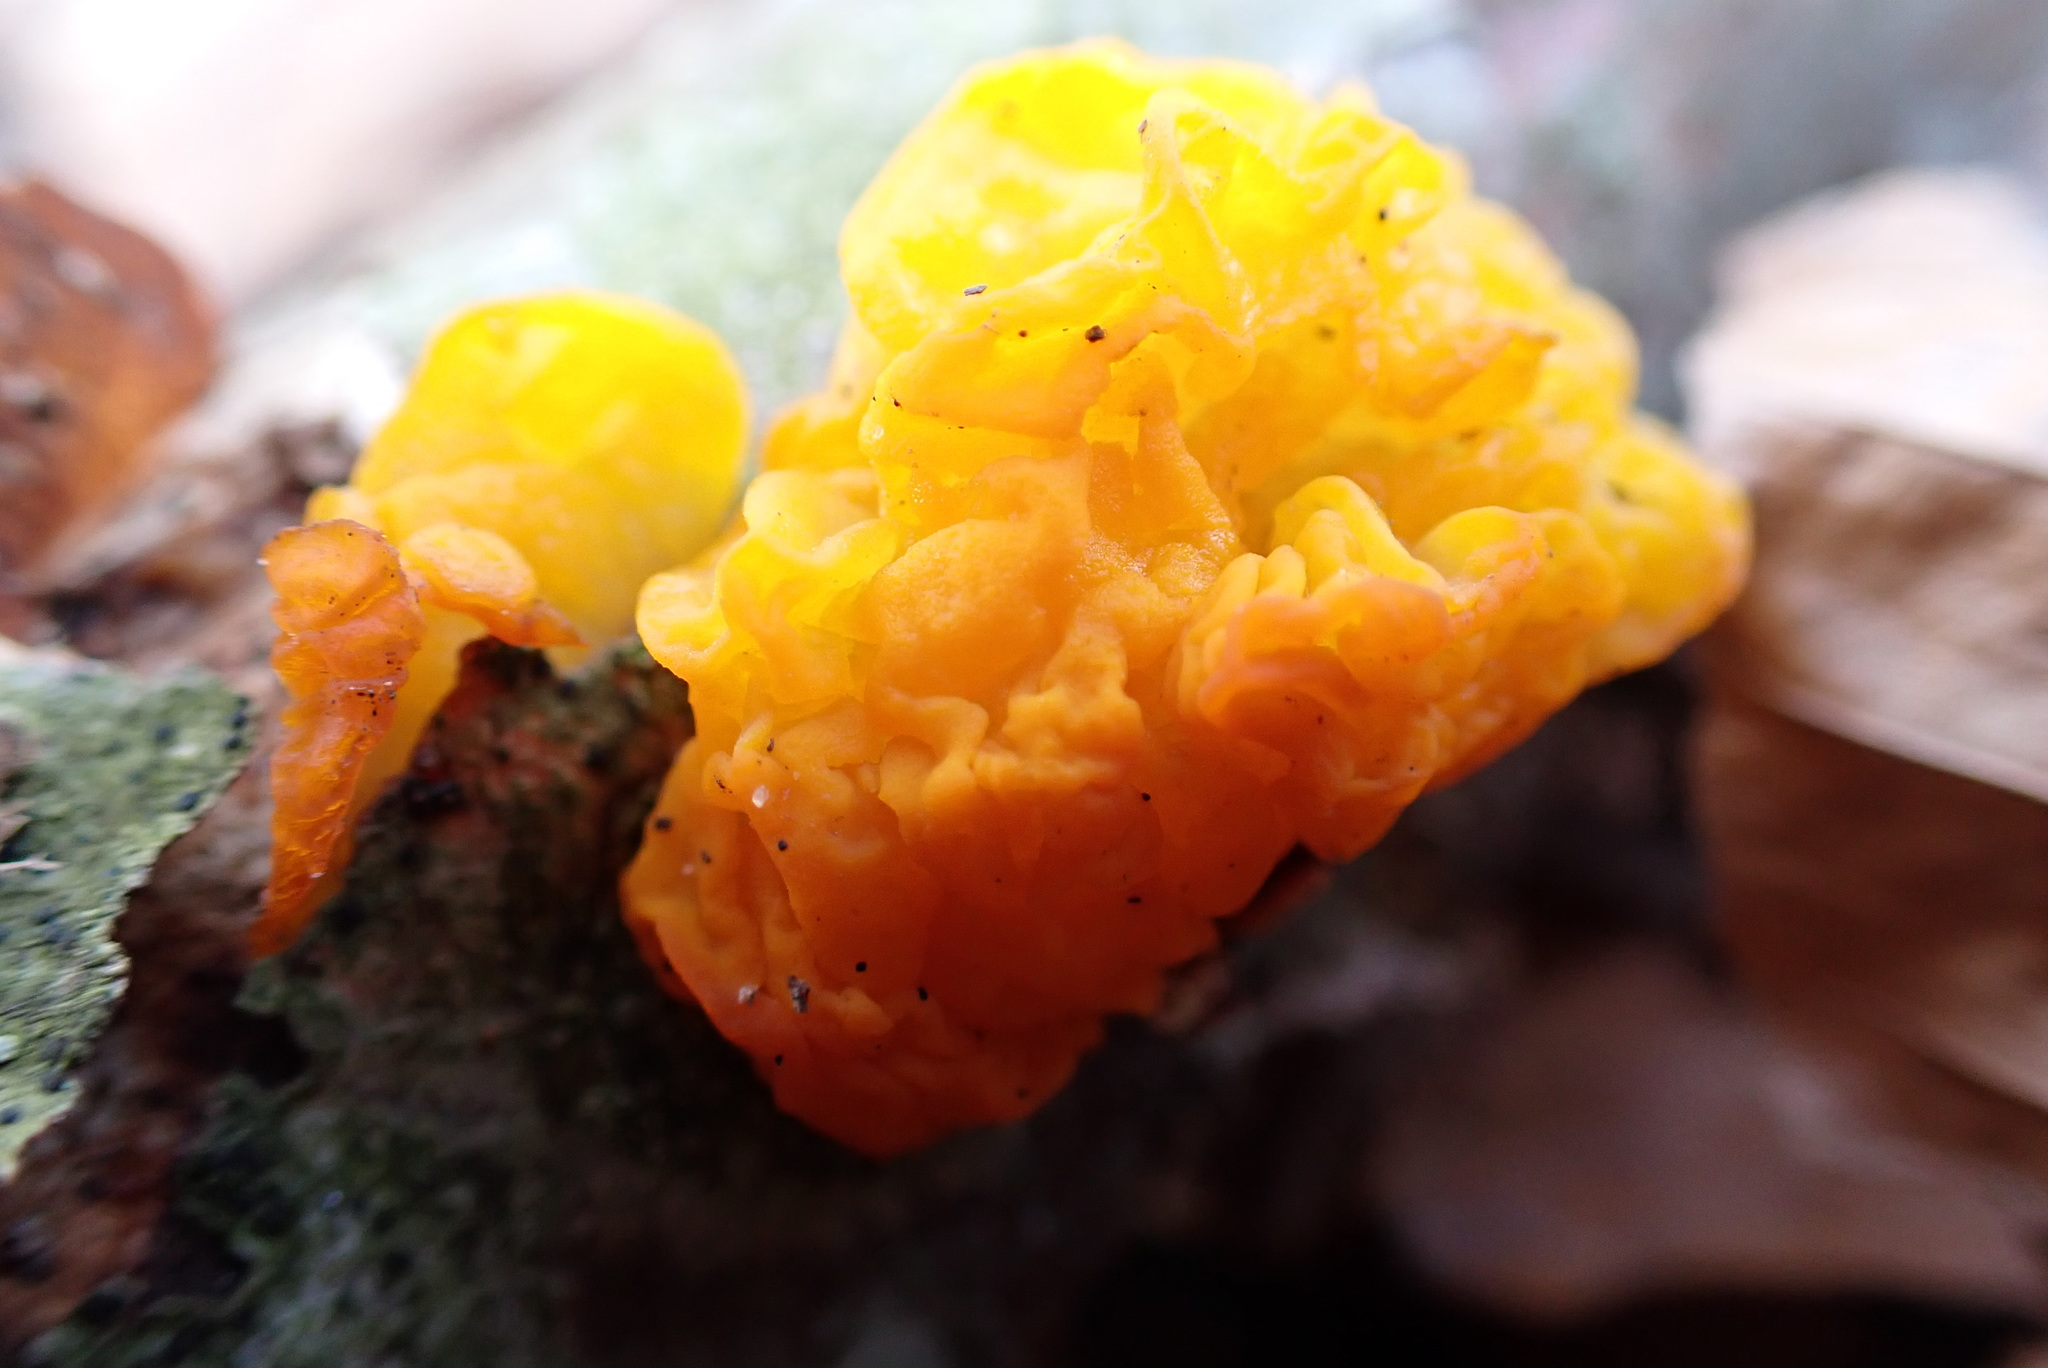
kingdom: Fungi
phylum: Basidiomycota
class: Tremellomycetes
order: Tremellales
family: Tremellaceae
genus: Tremella
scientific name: Tremella mesenterica
